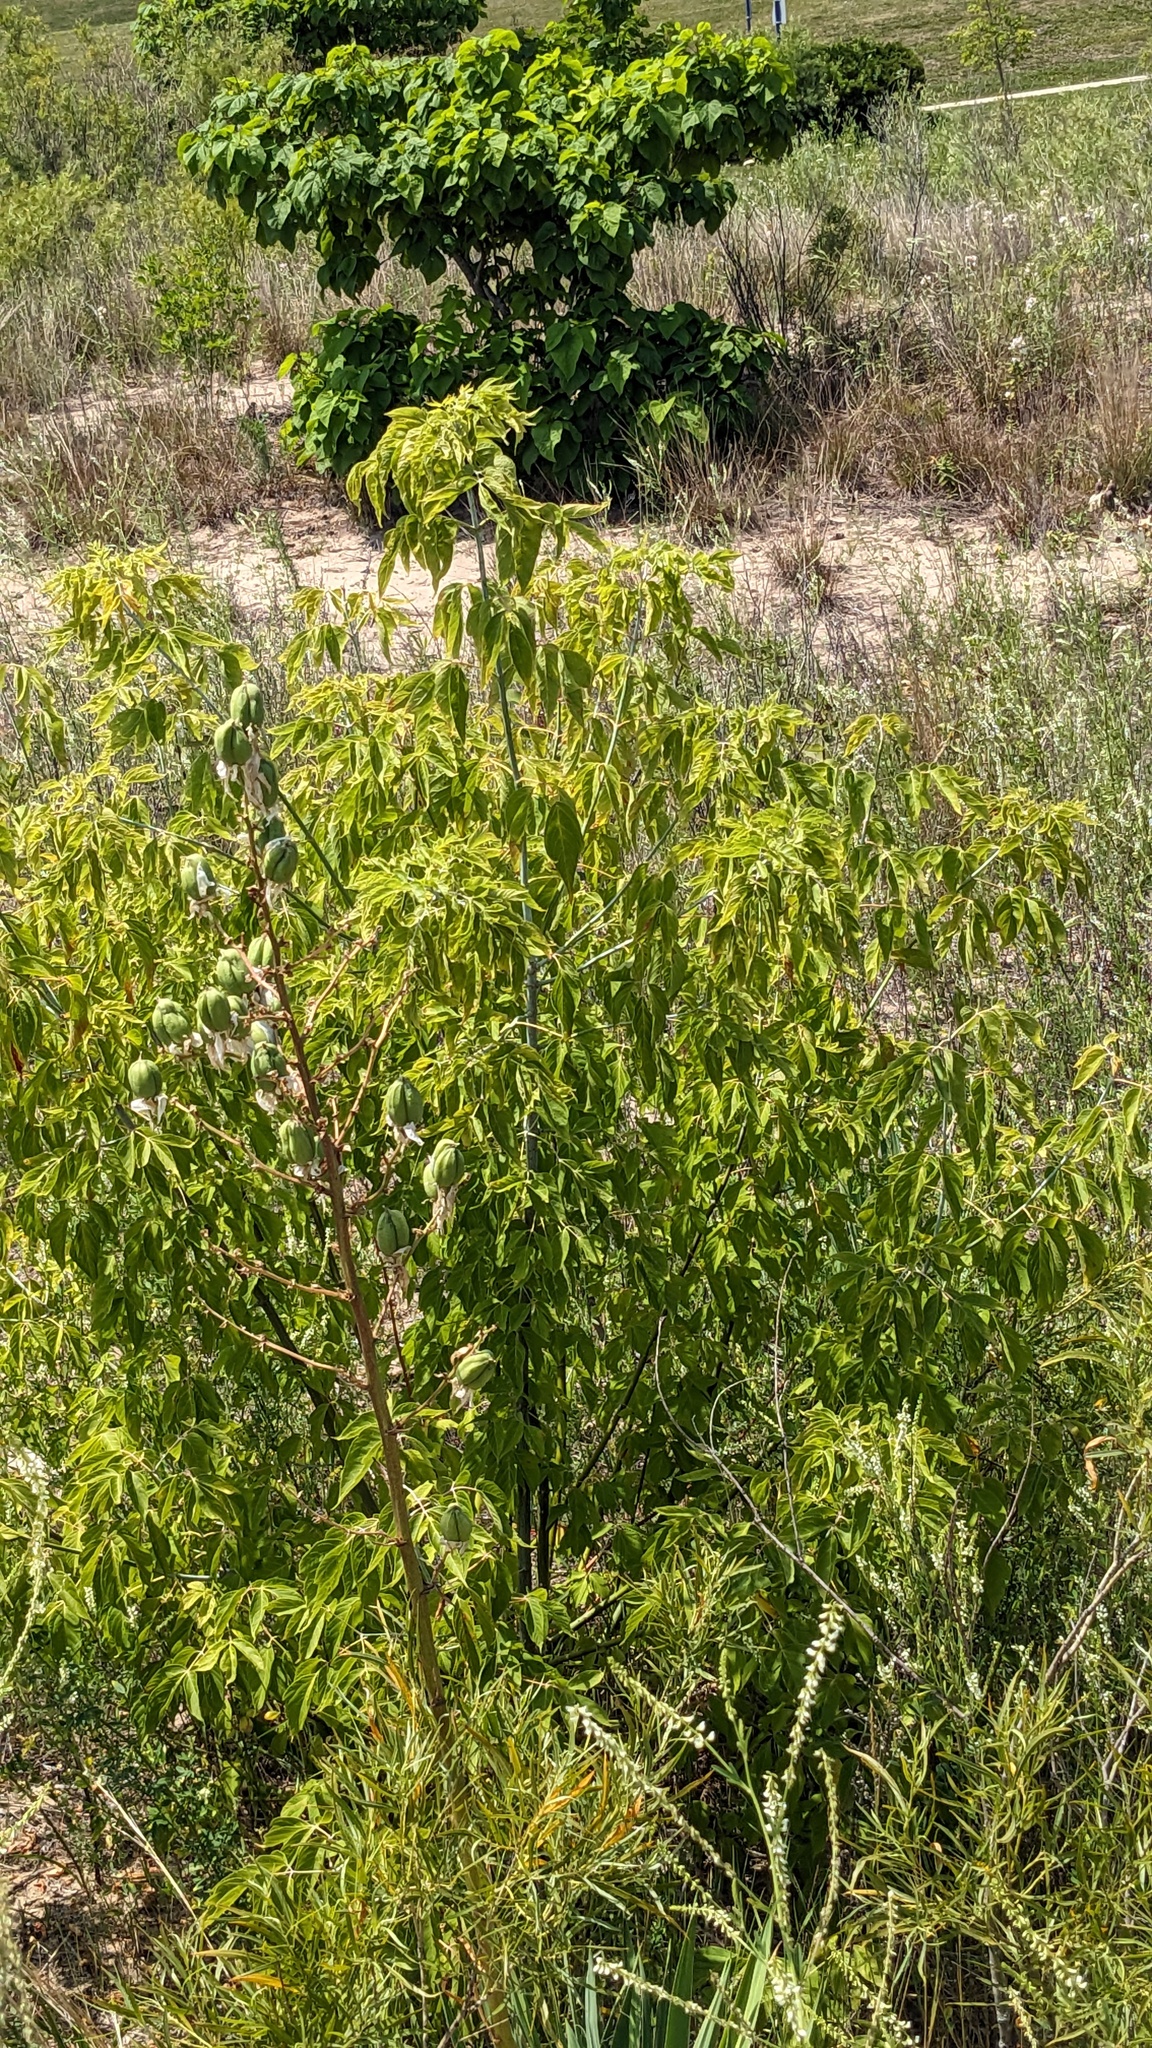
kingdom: Plantae
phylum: Tracheophyta
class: Magnoliopsida
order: Sapindales
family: Sapindaceae
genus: Acer
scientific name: Acer negundo
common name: Ashleaf maple
